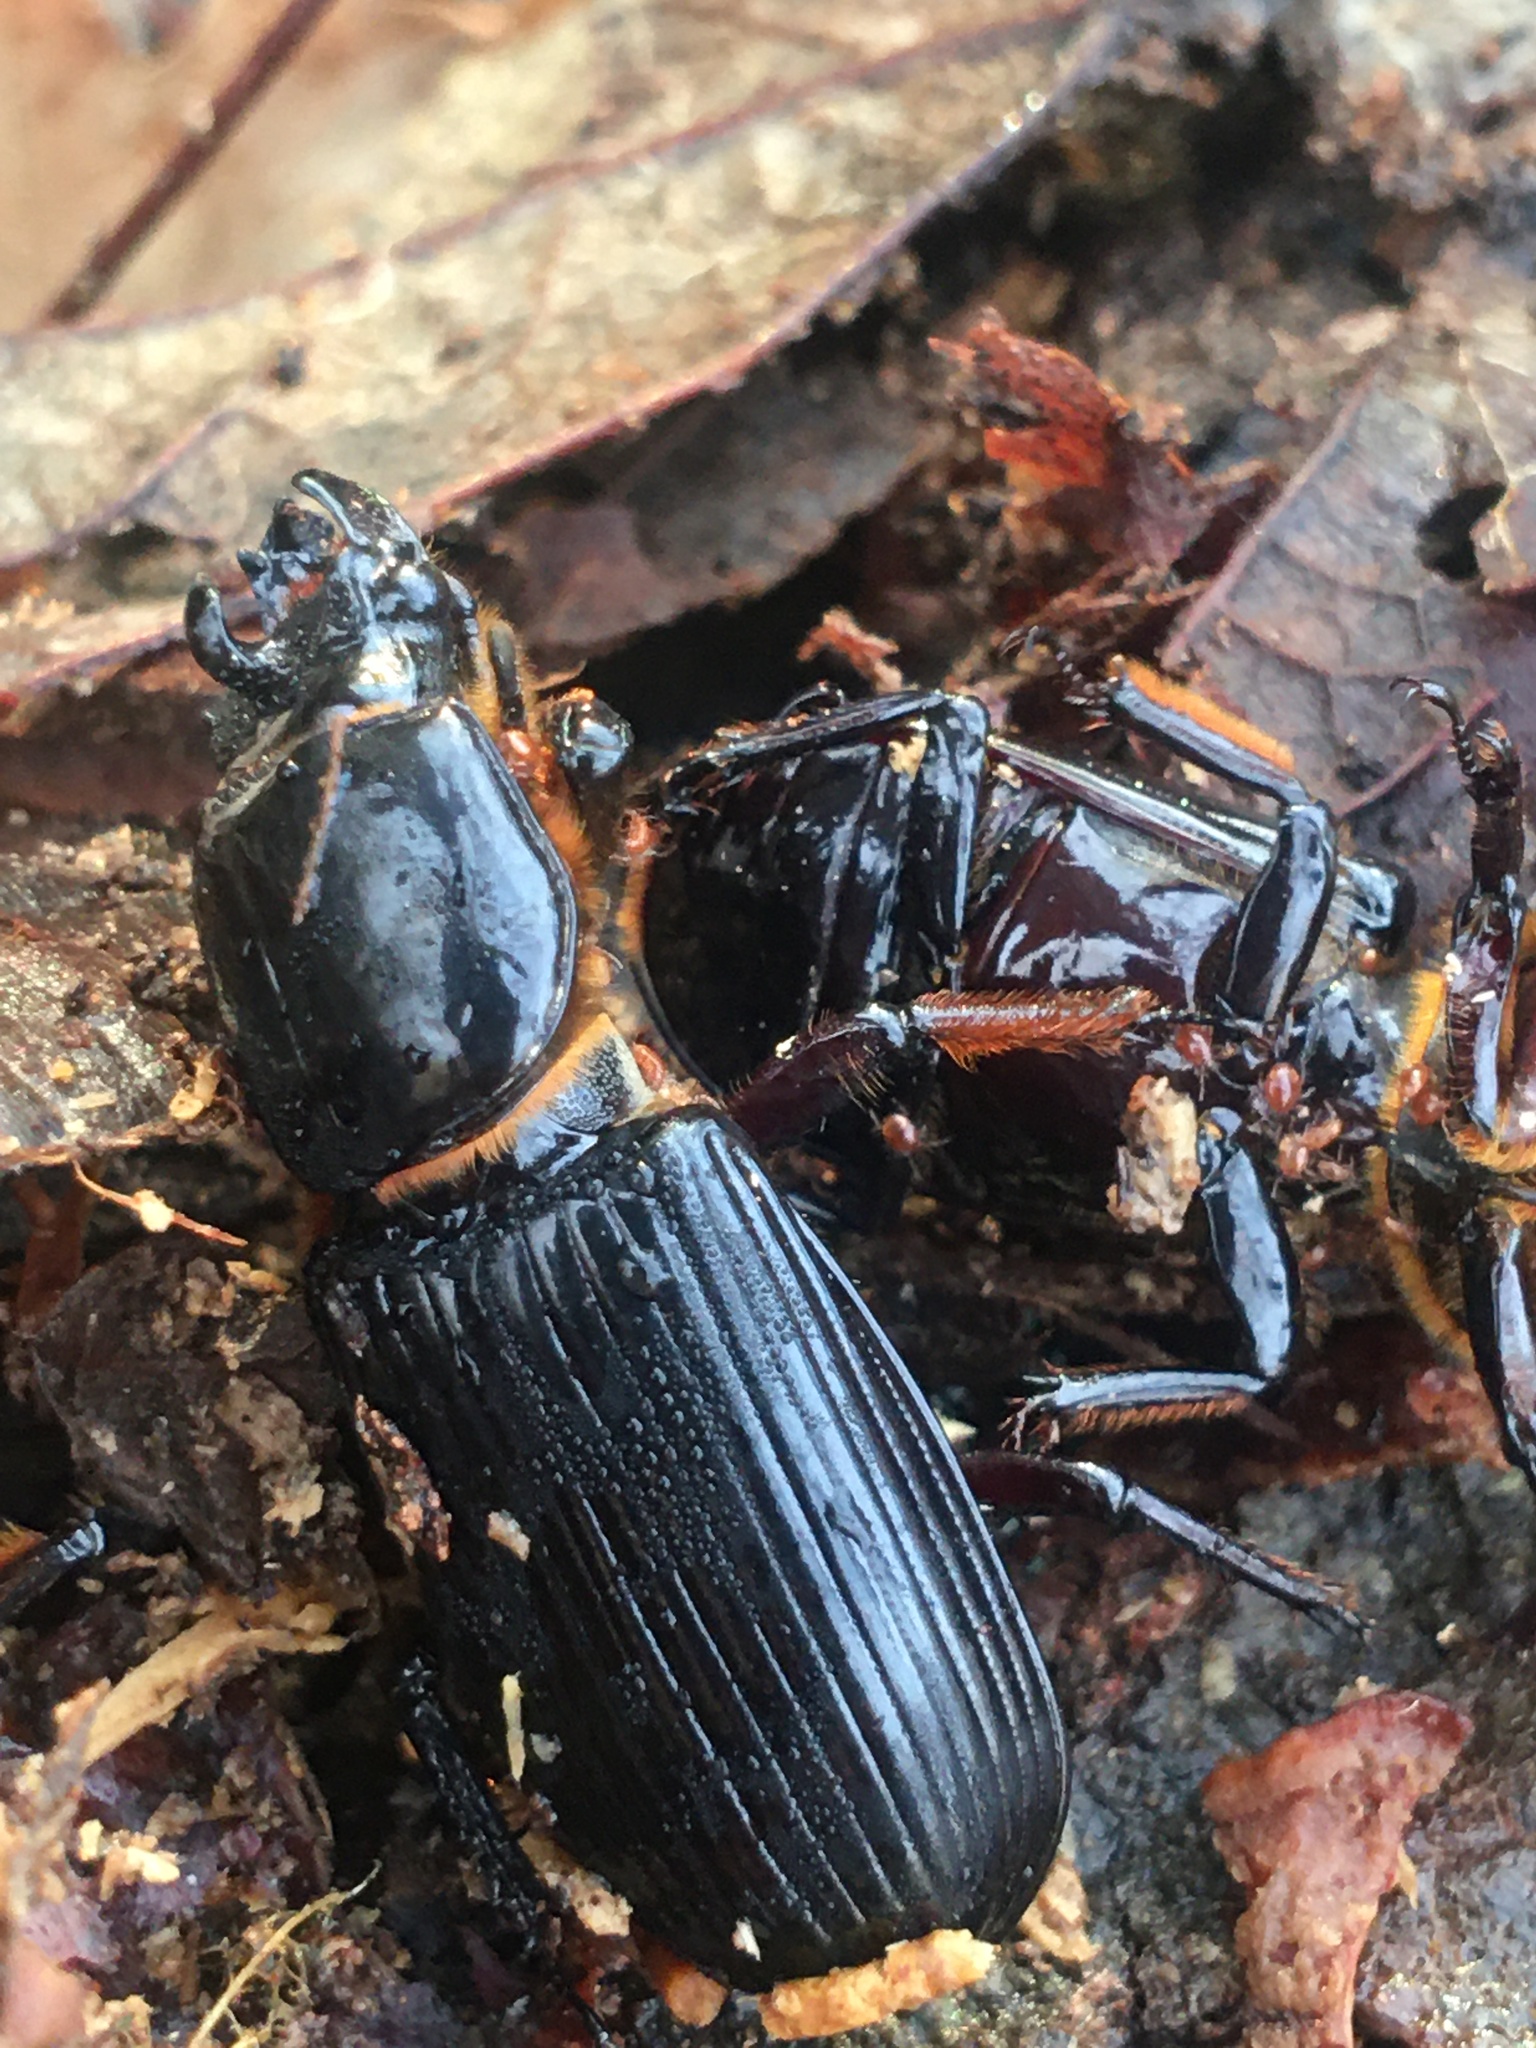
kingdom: Animalia
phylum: Arthropoda
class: Insecta
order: Coleoptera
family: Passalidae
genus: Odontotaenius
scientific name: Odontotaenius disjunctus
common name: Patent leather beetle
